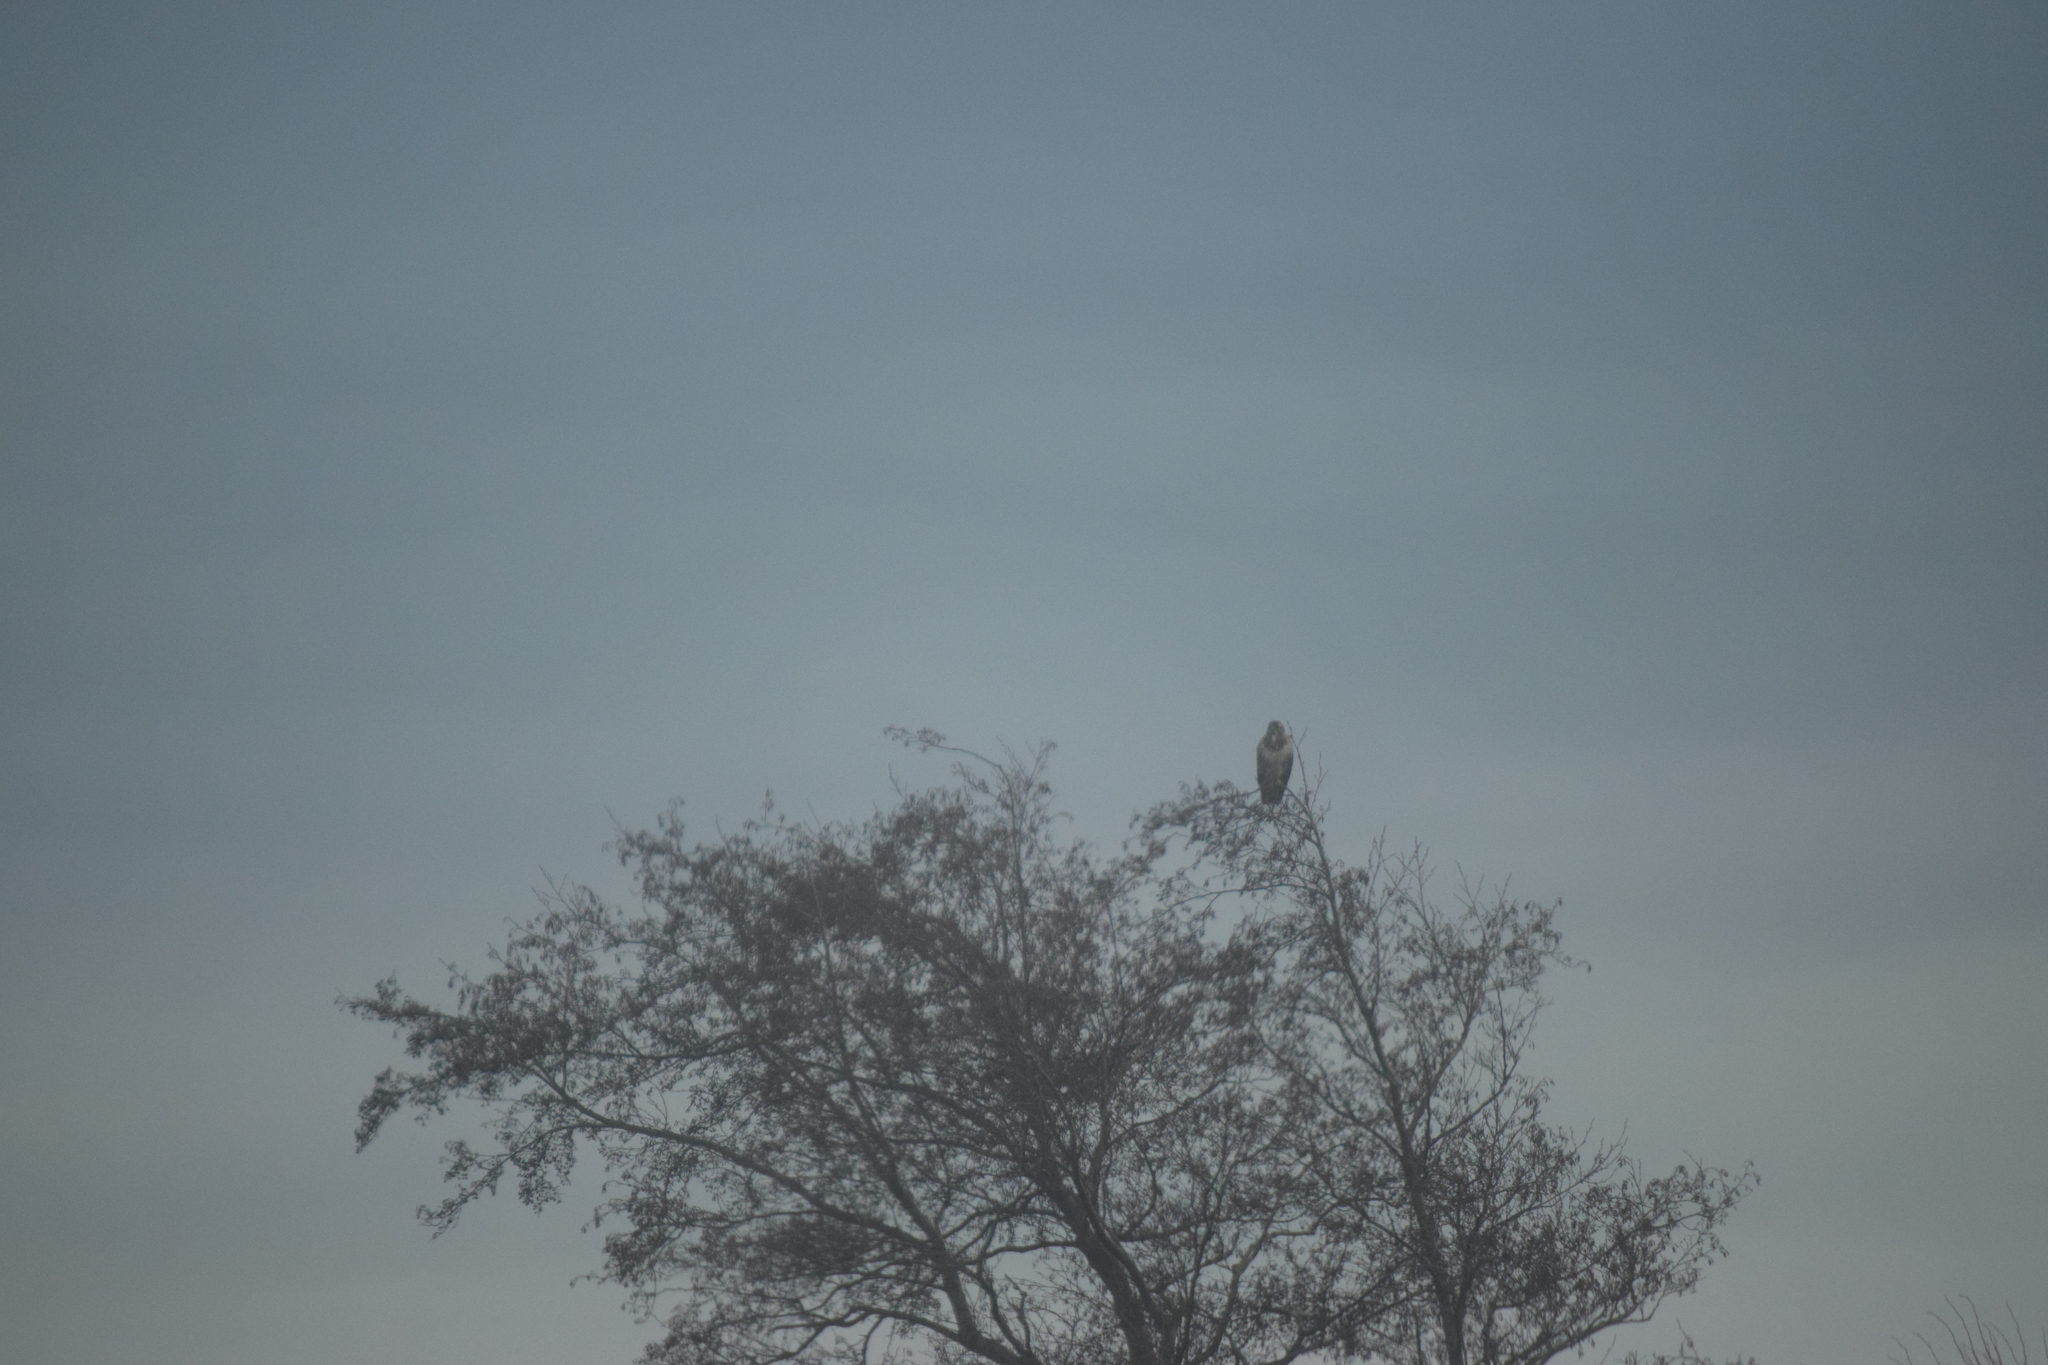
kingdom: Animalia
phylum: Chordata
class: Aves
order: Accipitriformes
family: Accipitridae
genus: Buteo
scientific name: Buteo buteo
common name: Common buzzard
